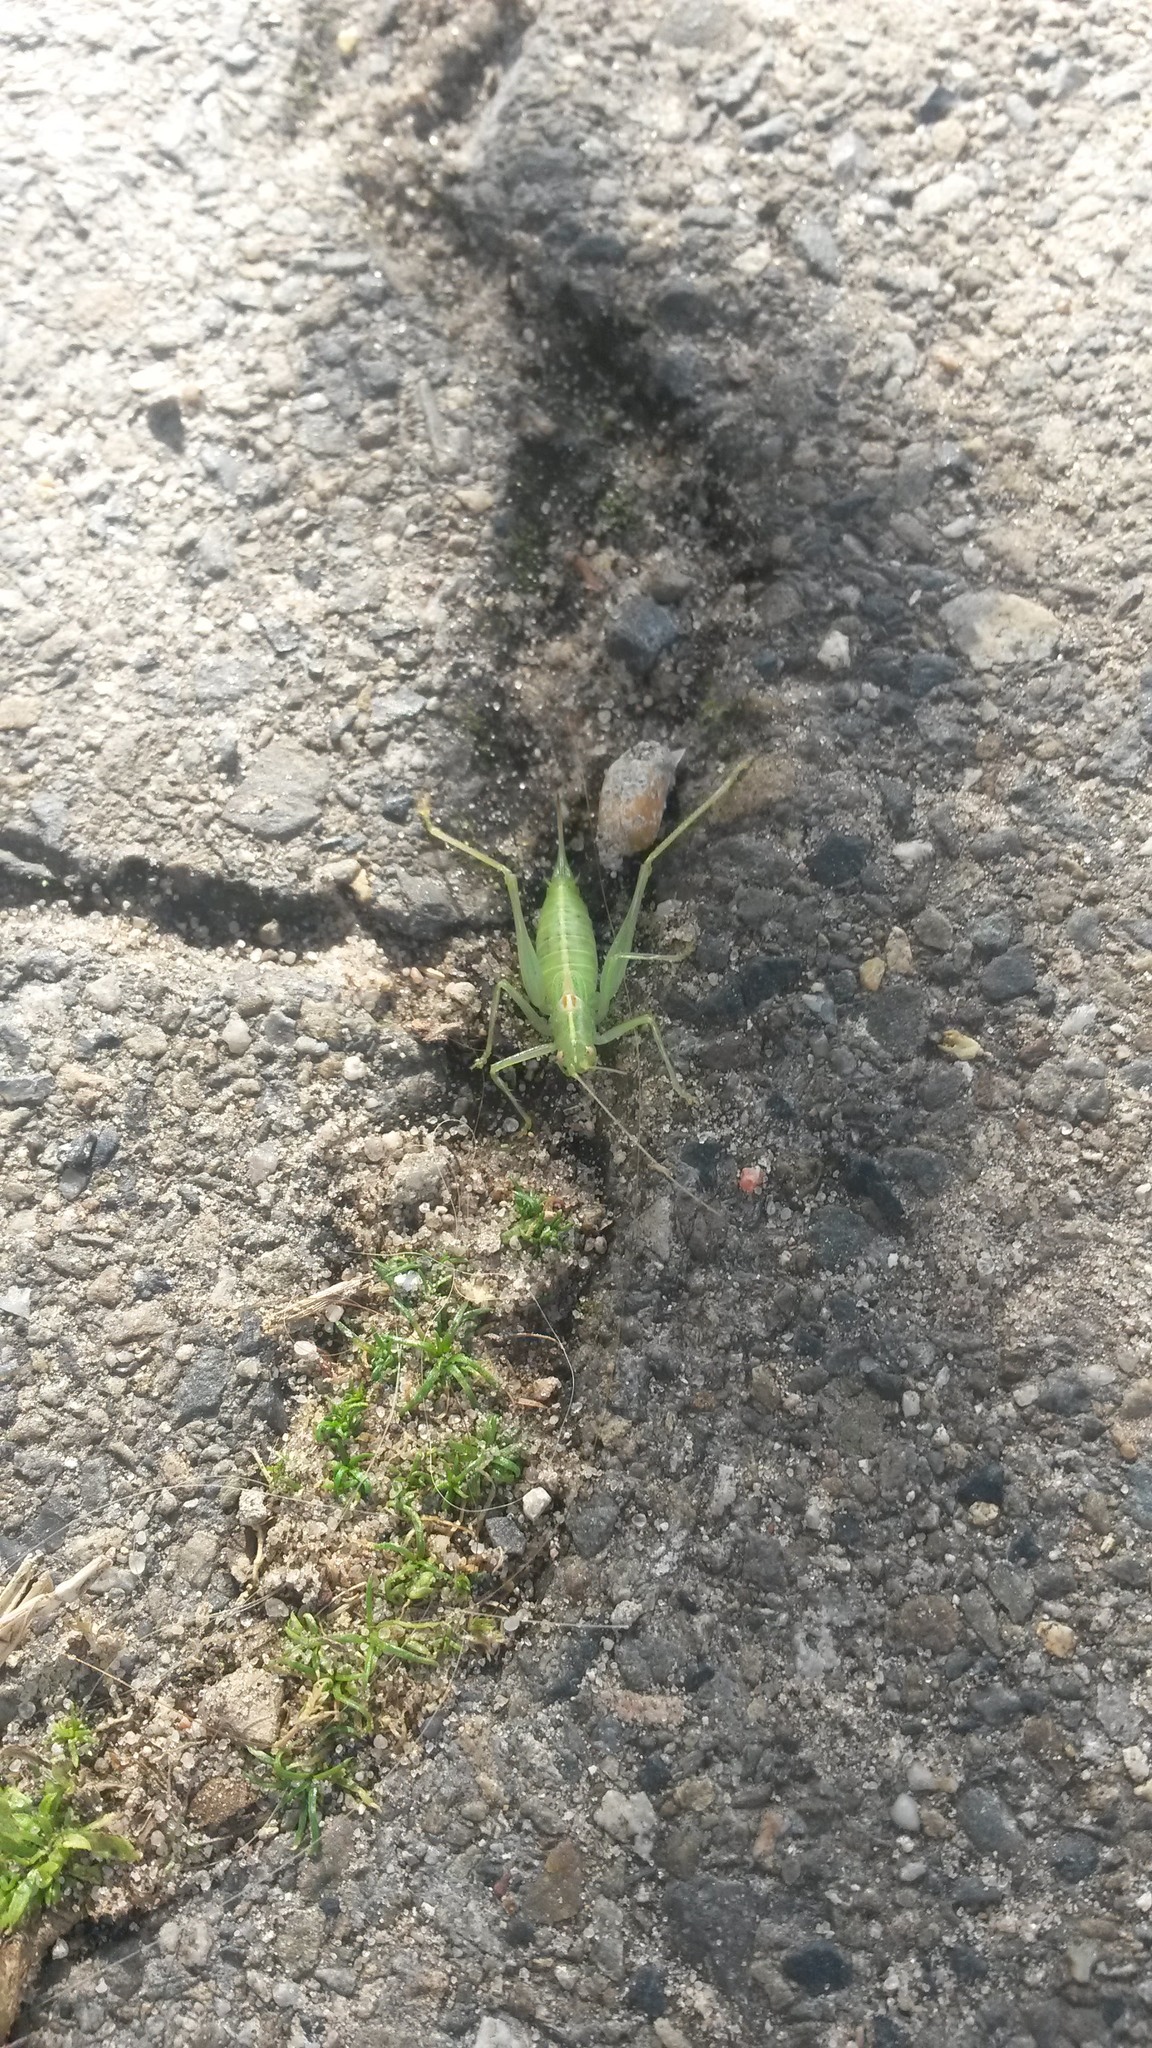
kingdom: Animalia
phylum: Arthropoda
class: Insecta
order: Orthoptera
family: Tettigoniidae
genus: Meconema
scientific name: Meconema meridionale
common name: Southern oak bush-cricket
